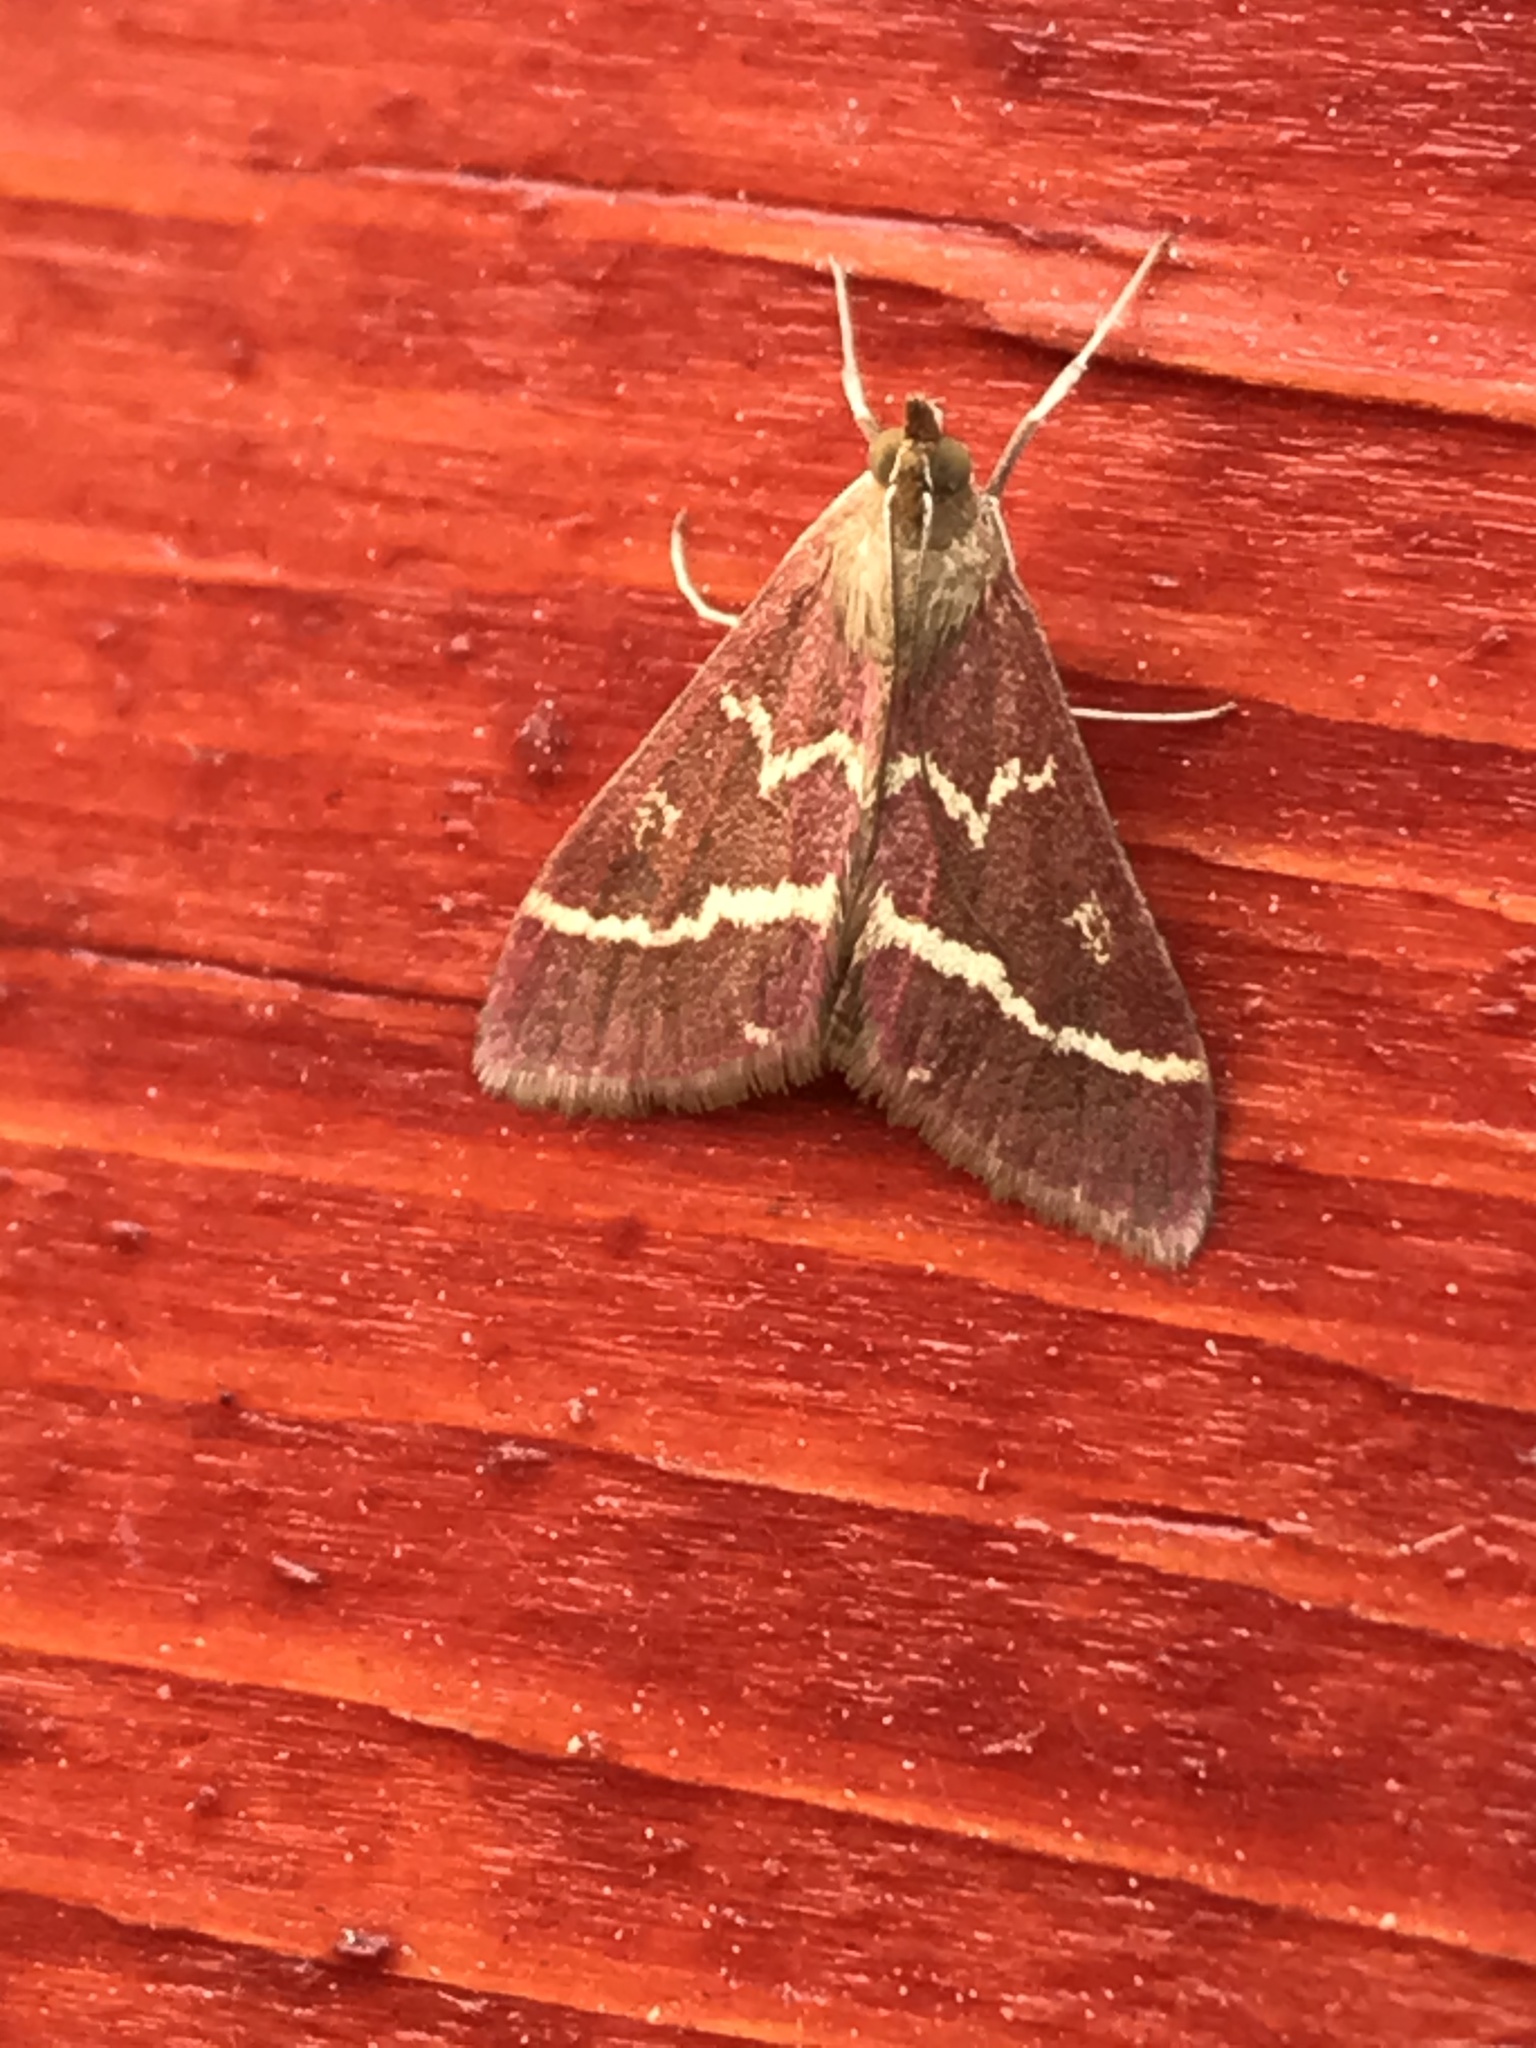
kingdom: Animalia
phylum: Arthropoda
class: Insecta
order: Lepidoptera
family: Crambidae
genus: Pyrausta
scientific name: Pyrausta volupialis
